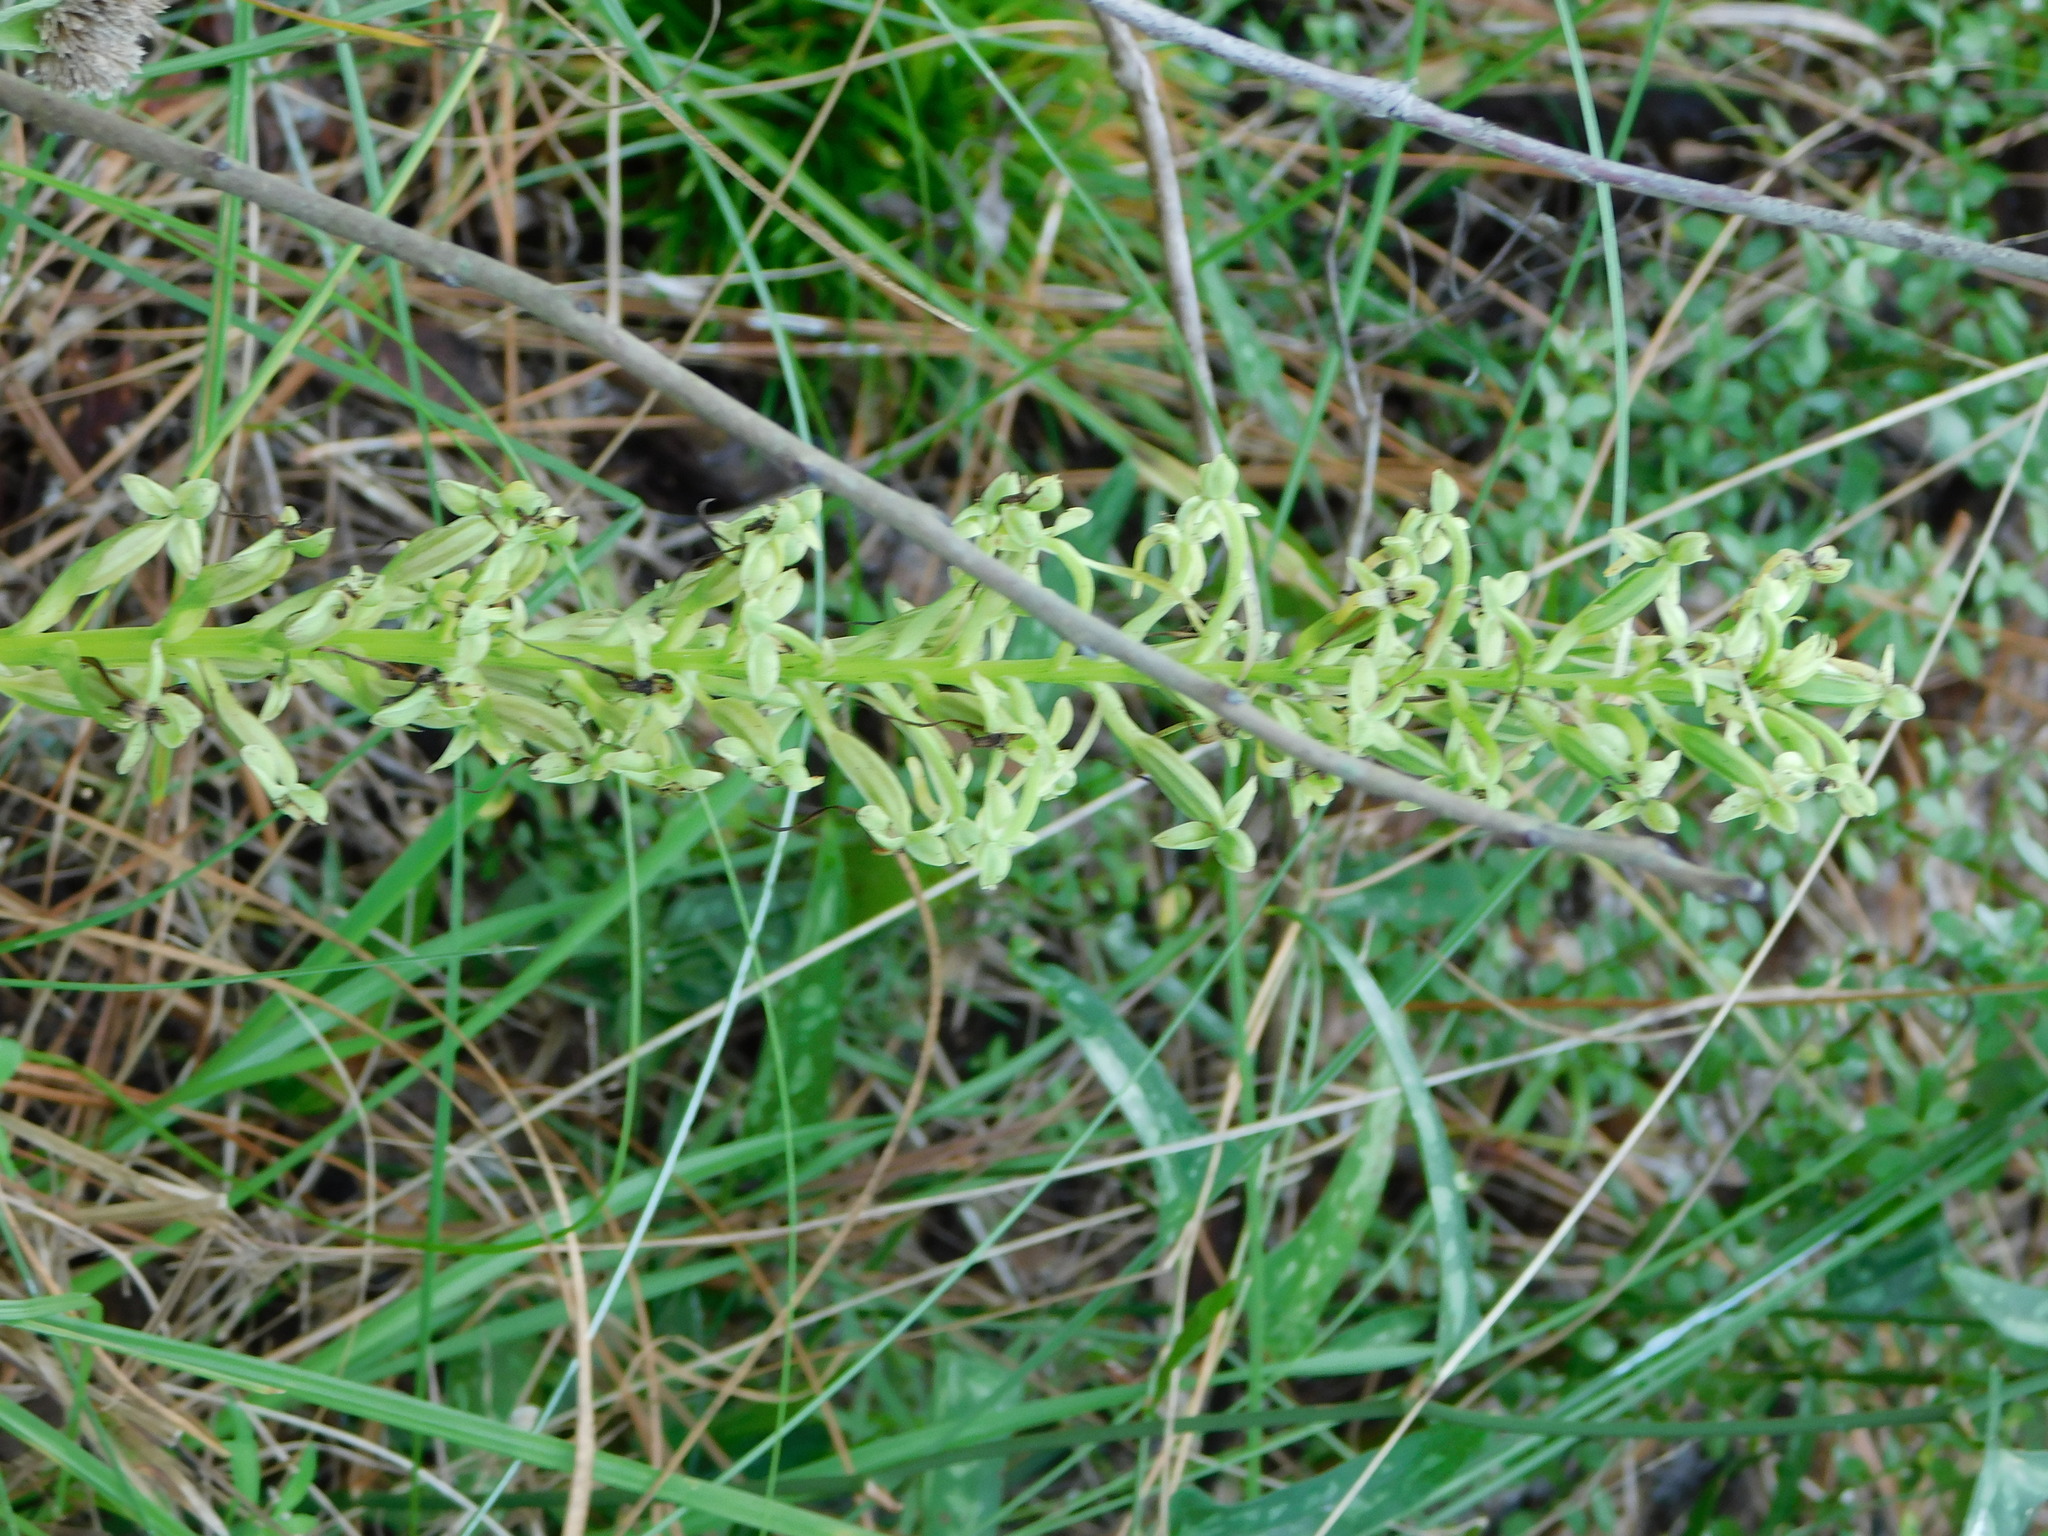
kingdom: Plantae
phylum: Tracheophyta
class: Liliopsida
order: Asparagales
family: Orchidaceae
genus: Habenaria
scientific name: Habenaria floribunda
